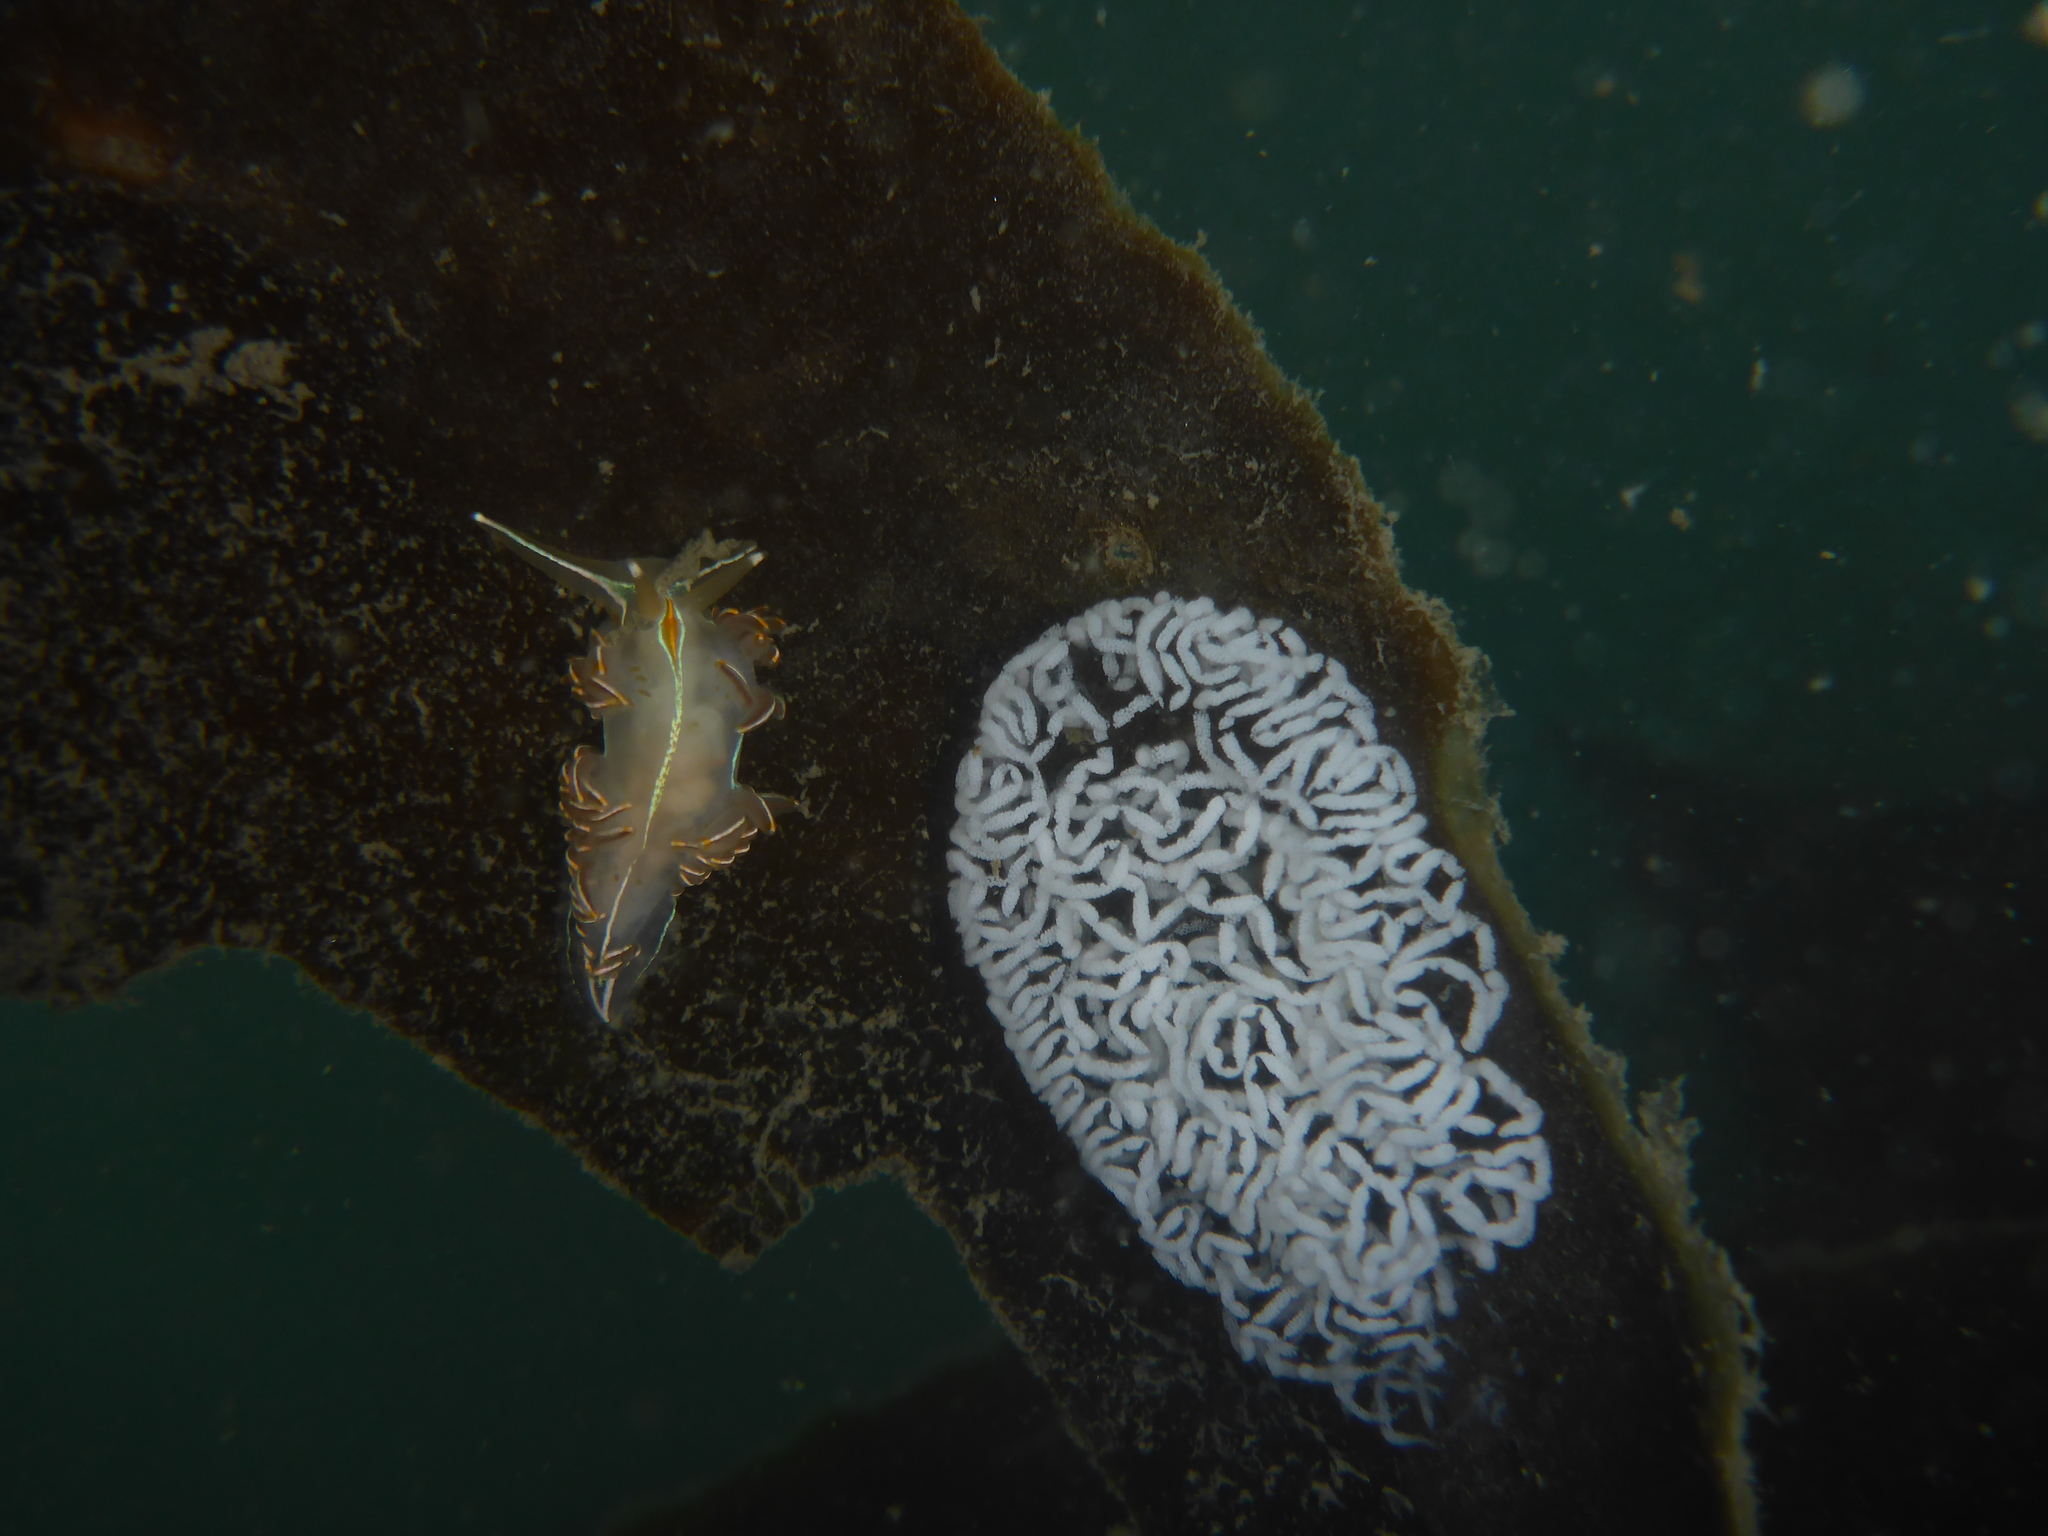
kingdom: Animalia
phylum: Mollusca
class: Gastropoda
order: Nudibranchia
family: Myrrhinidae
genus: Hermissenda
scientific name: Hermissenda crassicornis
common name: Hermissenda
